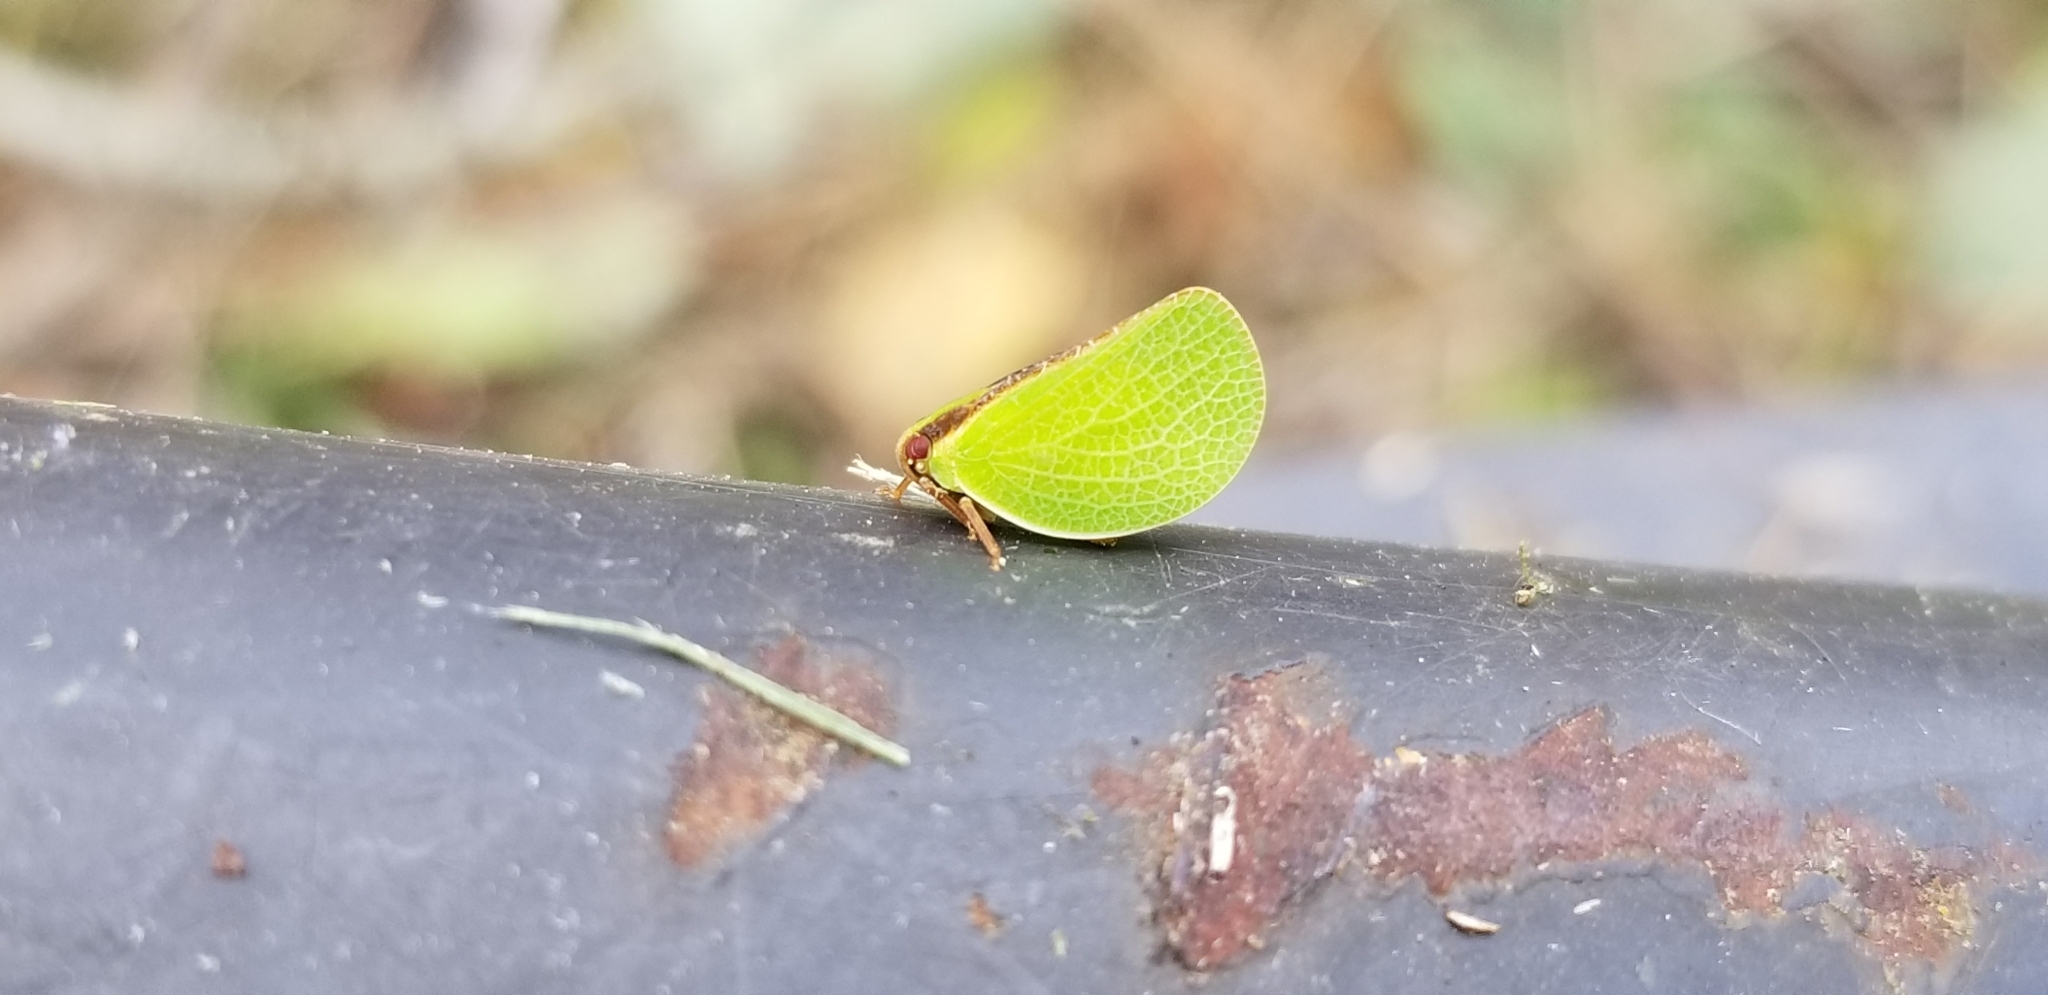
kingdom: Animalia
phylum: Arthropoda
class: Insecta
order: Hemiptera
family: Acanaloniidae
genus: Acanalonia
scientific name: Acanalonia bivittata
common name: Two-striped planthopper
